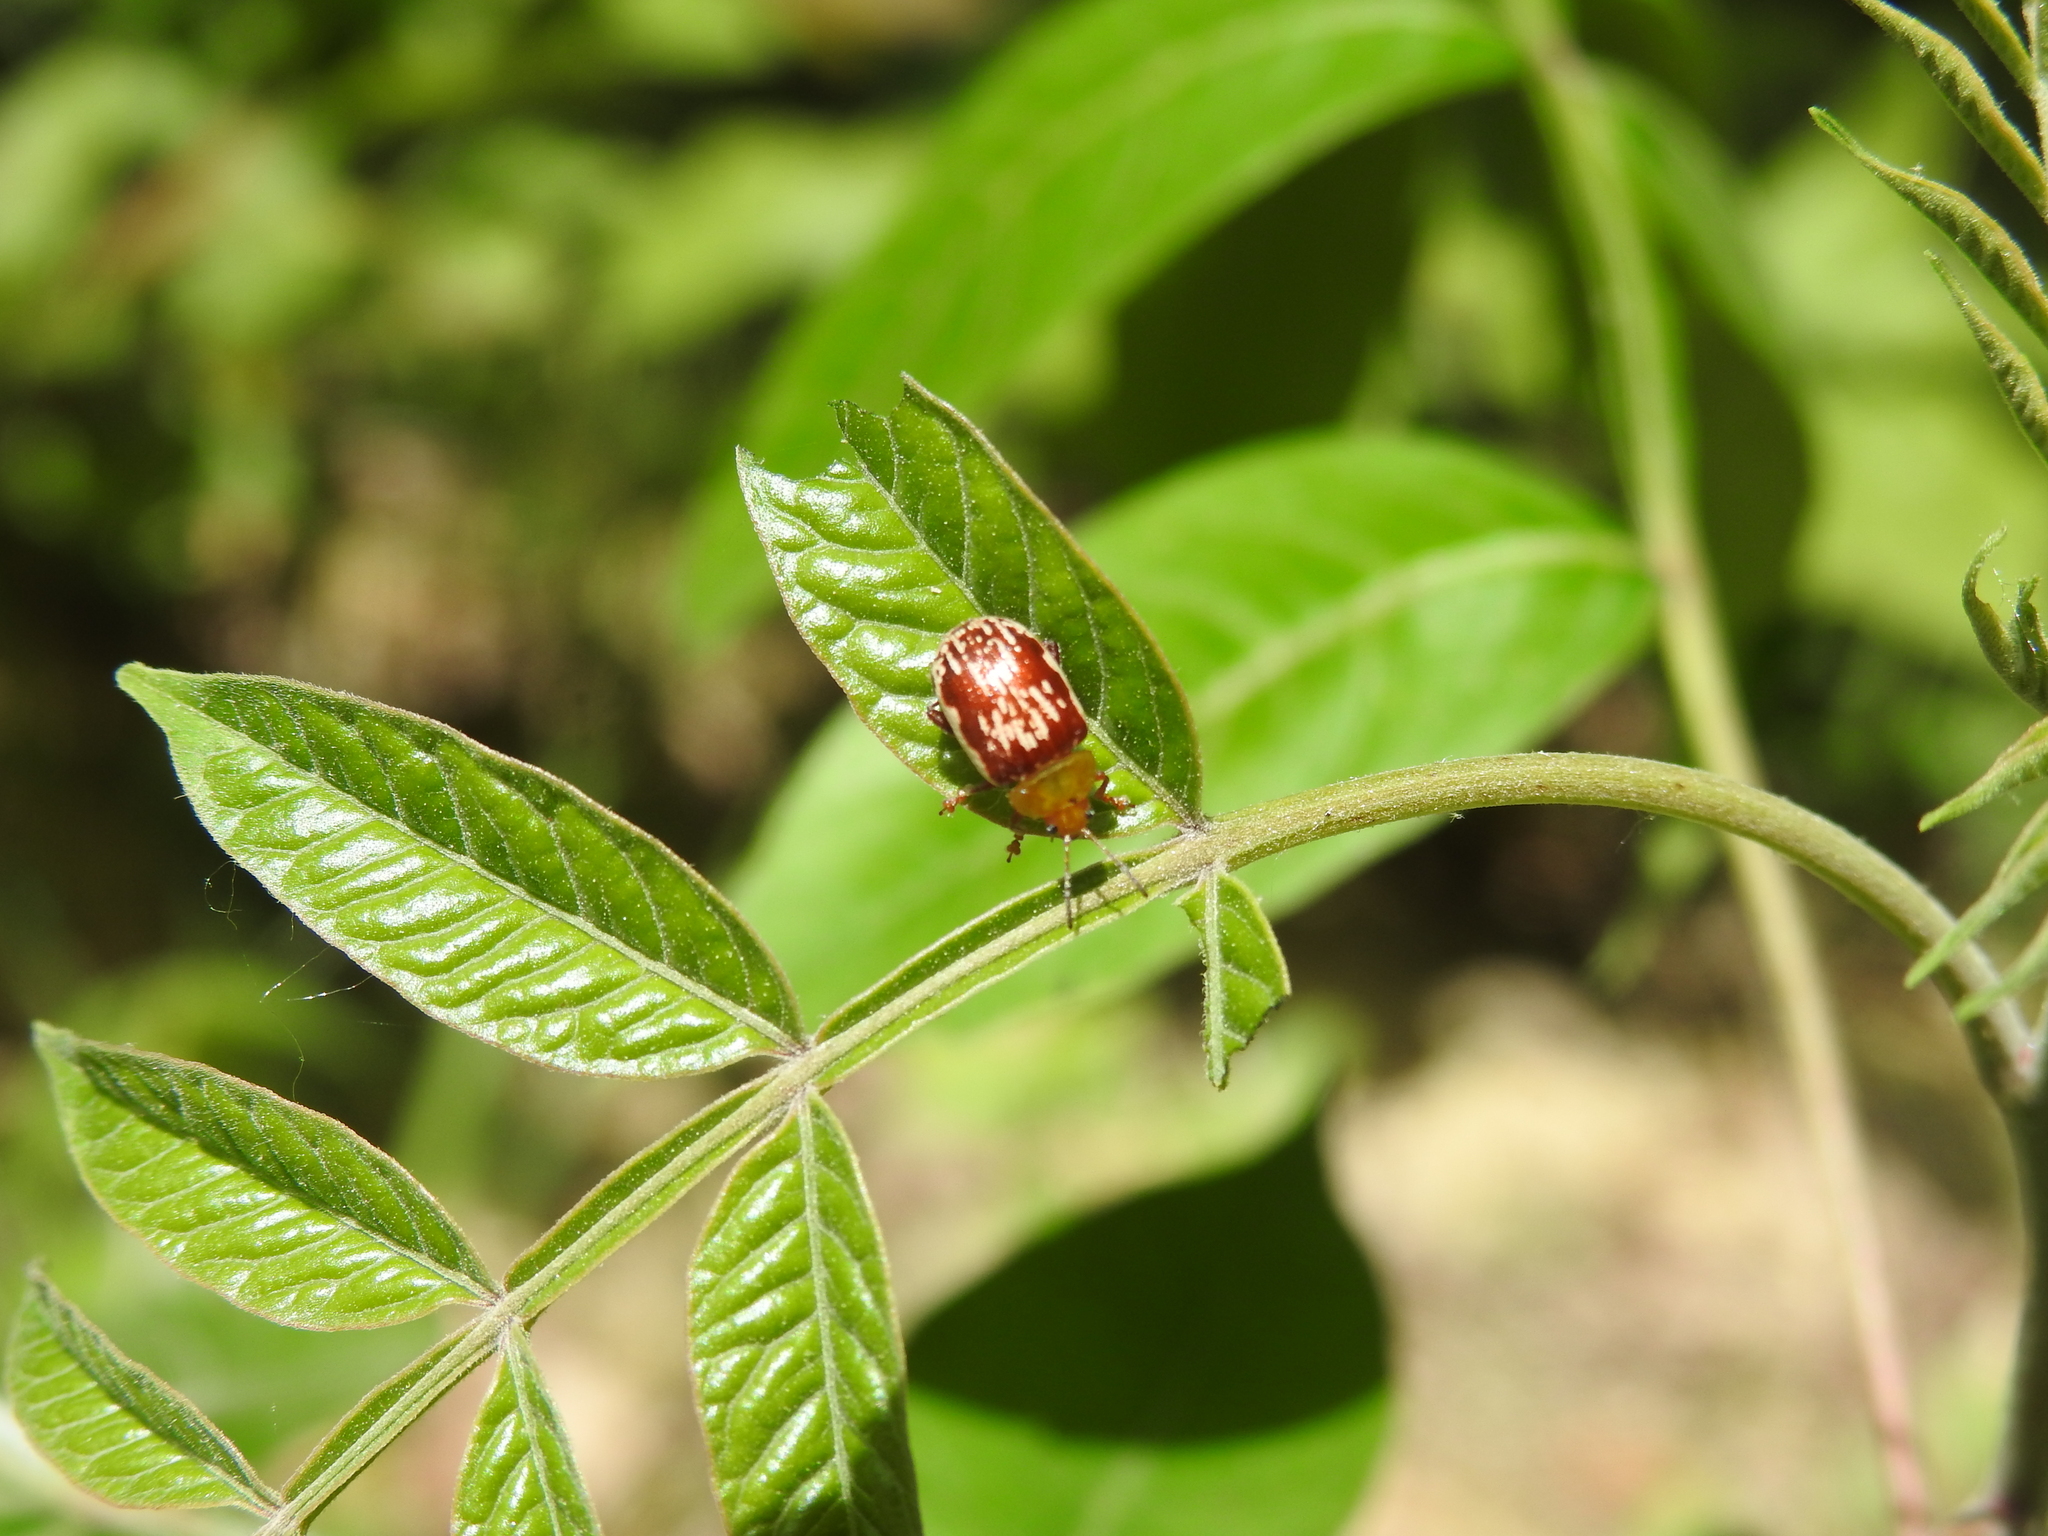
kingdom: Animalia
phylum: Arthropoda
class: Insecta
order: Coleoptera
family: Chrysomelidae
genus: Blepharida
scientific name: Blepharida rhois
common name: Sumac flea beetle
